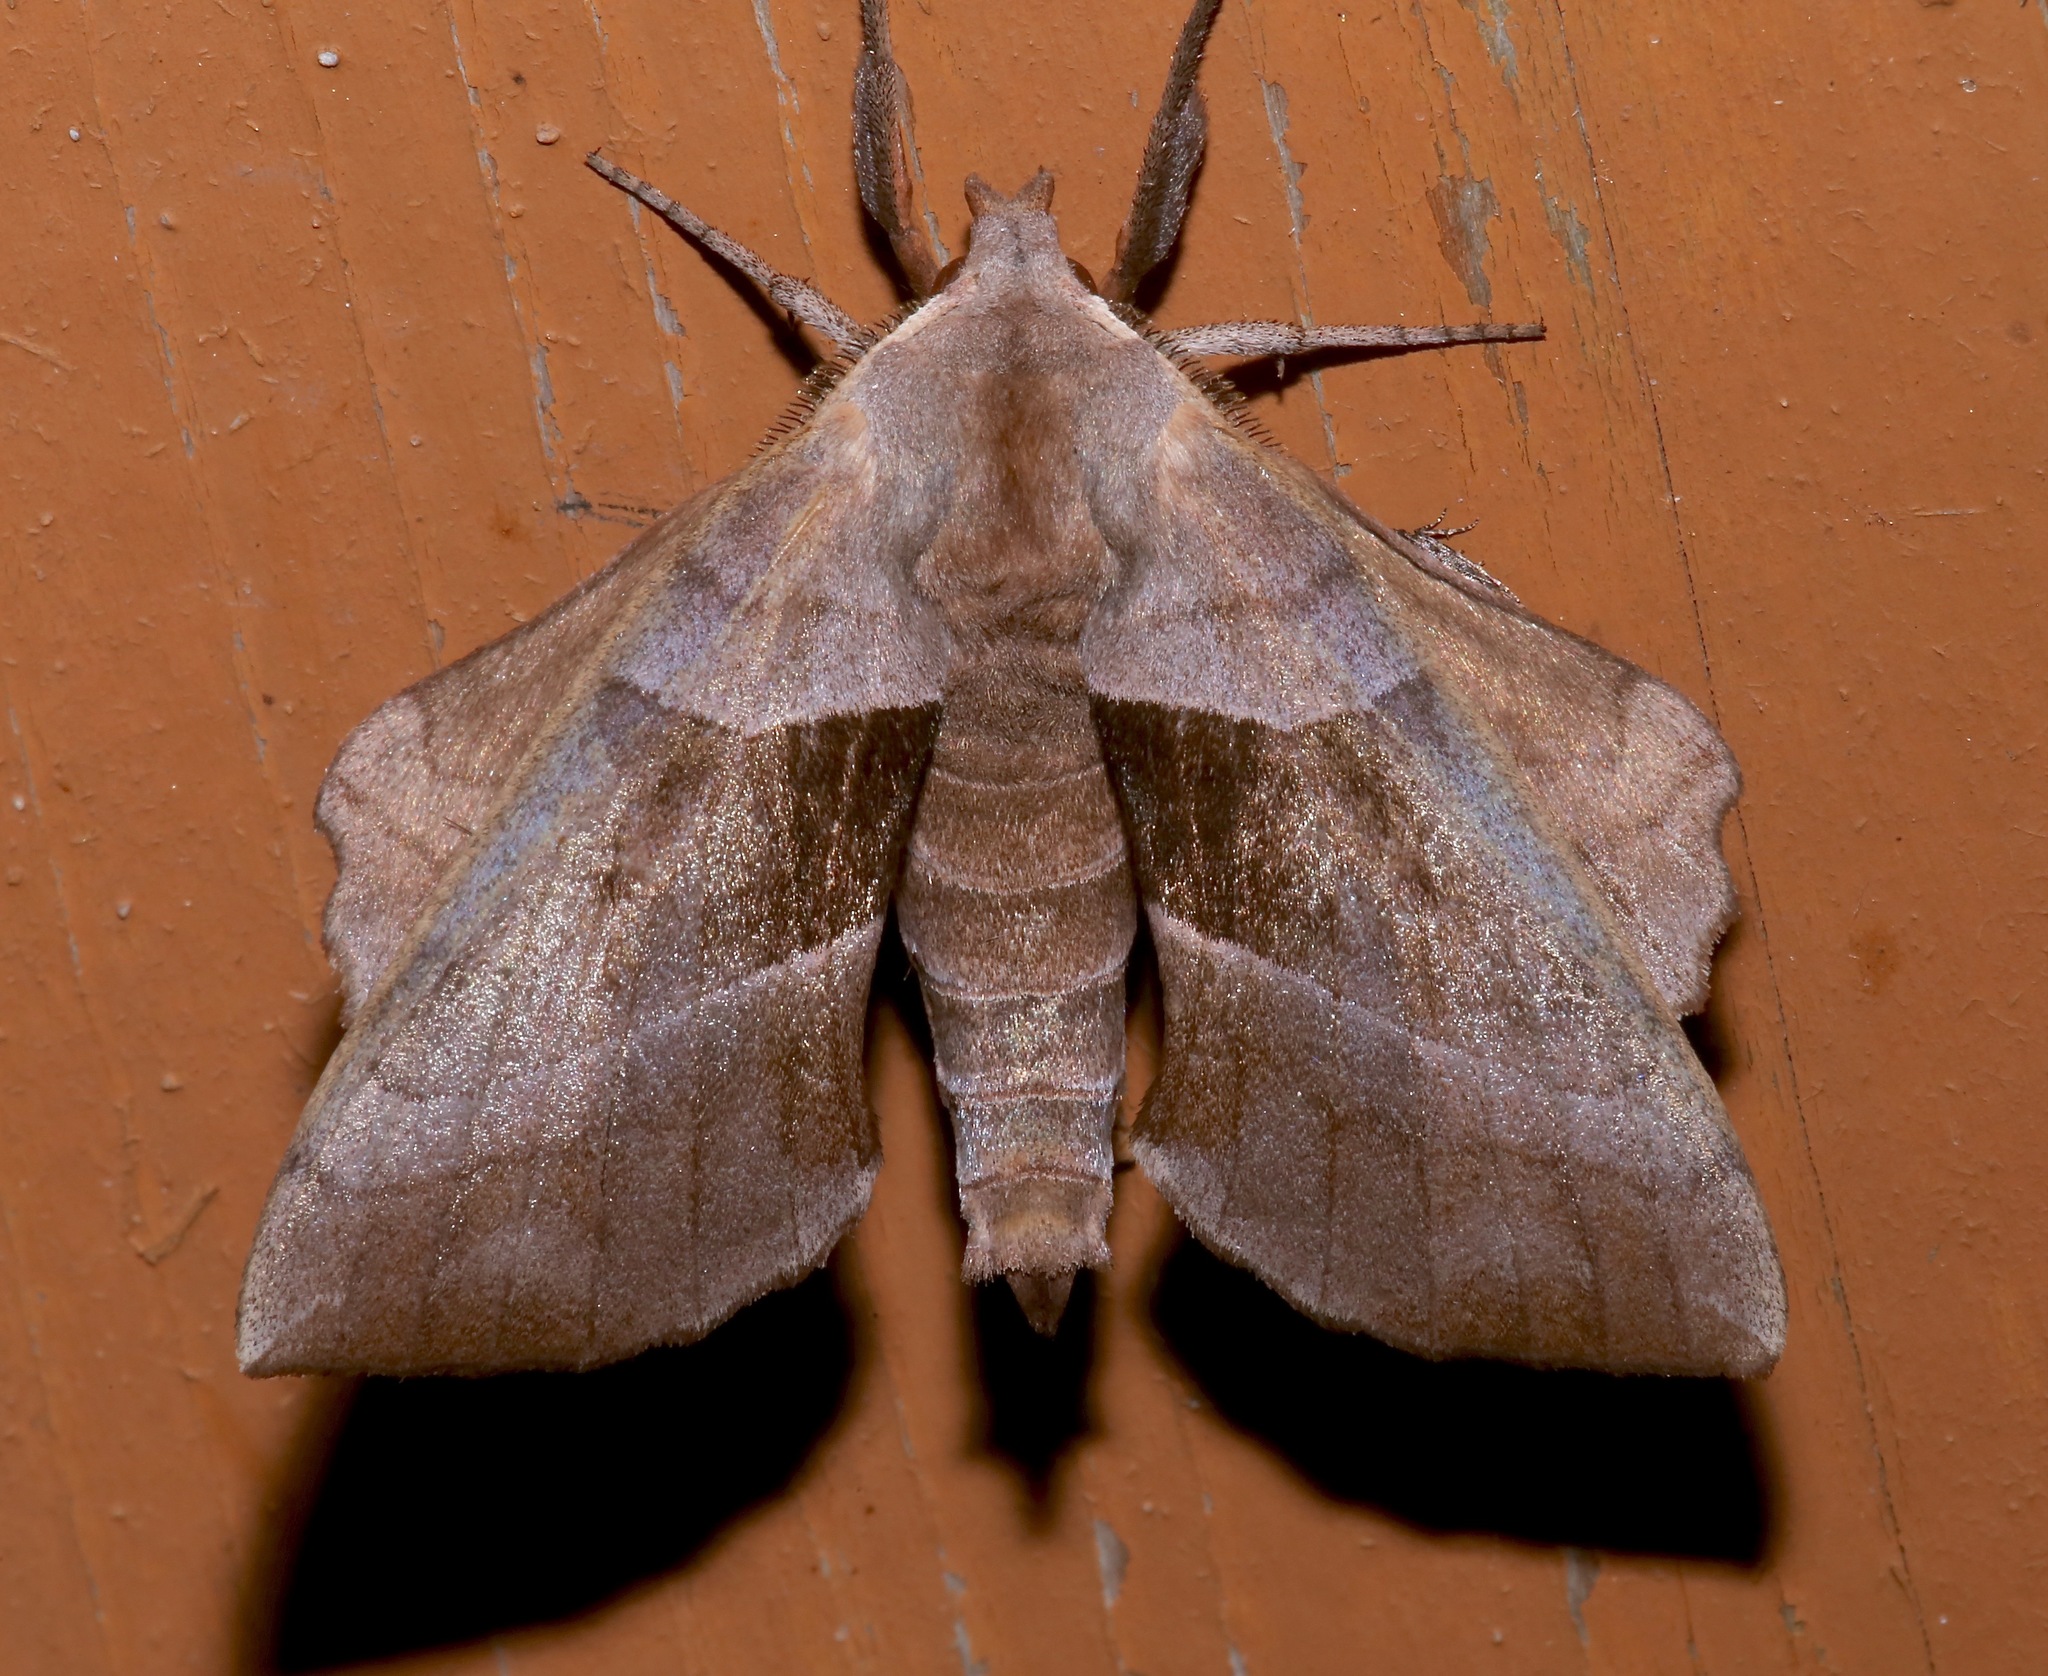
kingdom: Animalia
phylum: Arthropoda
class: Insecta
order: Lepidoptera
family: Sphingidae
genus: Amorpha
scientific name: Amorpha juglandis
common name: Walnut sphinx
